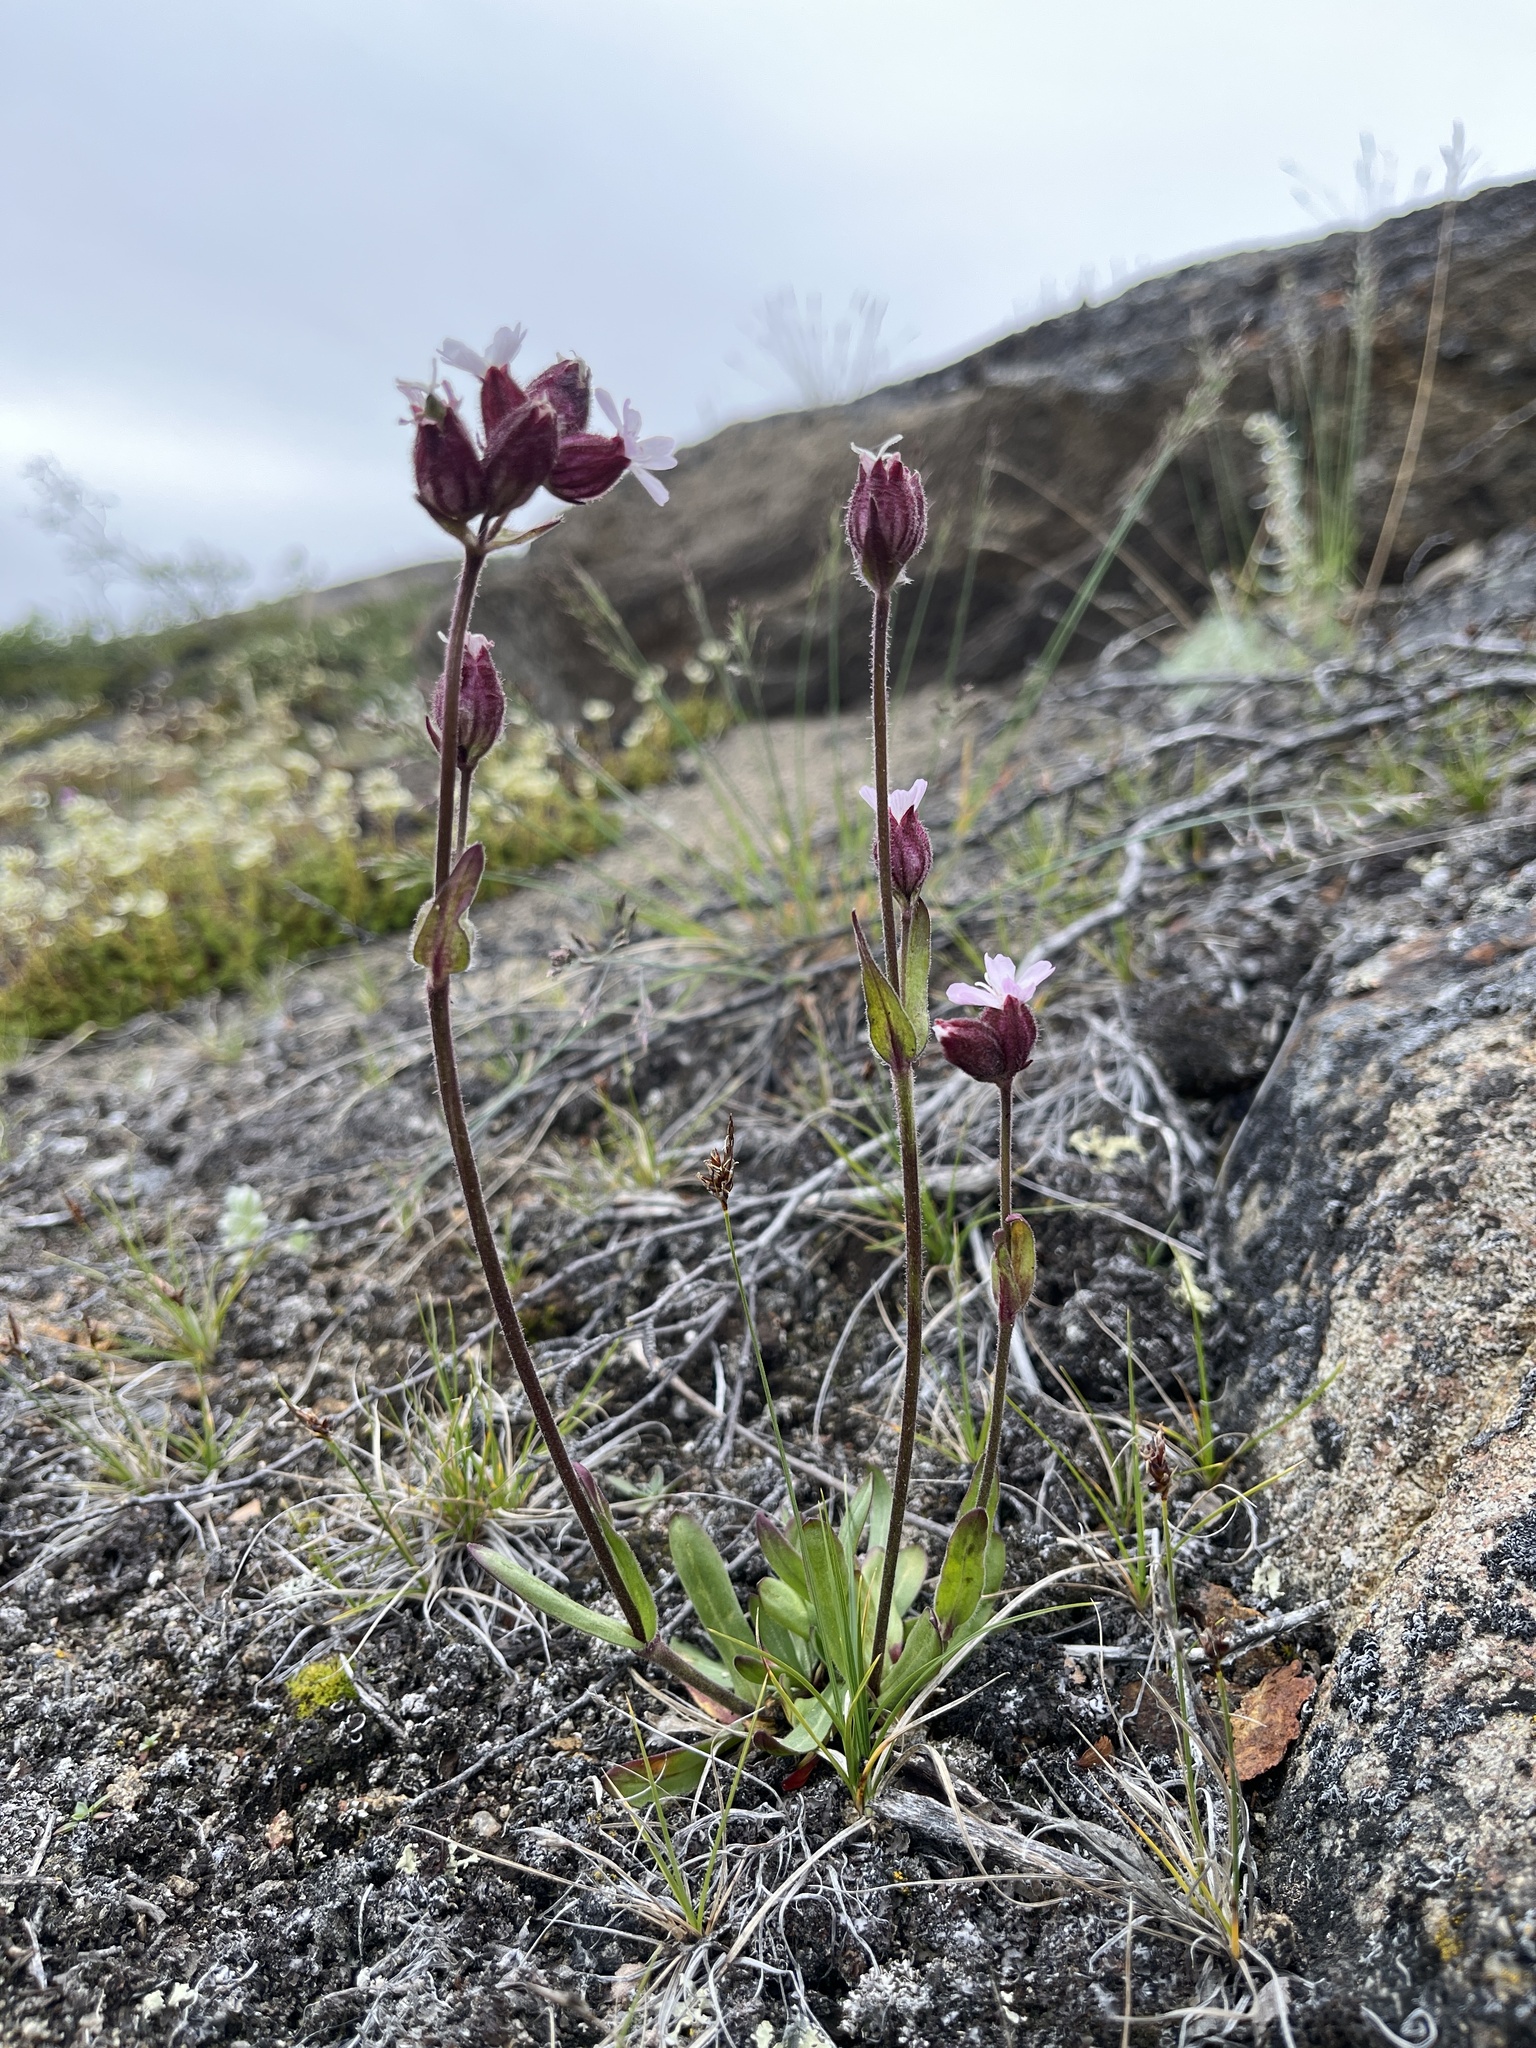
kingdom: Plantae
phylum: Tracheophyta
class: Magnoliopsida
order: Caryophyllales
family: Caryophyllaceae
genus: Silene
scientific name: Silene sorensenis
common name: Sorensen's campion
